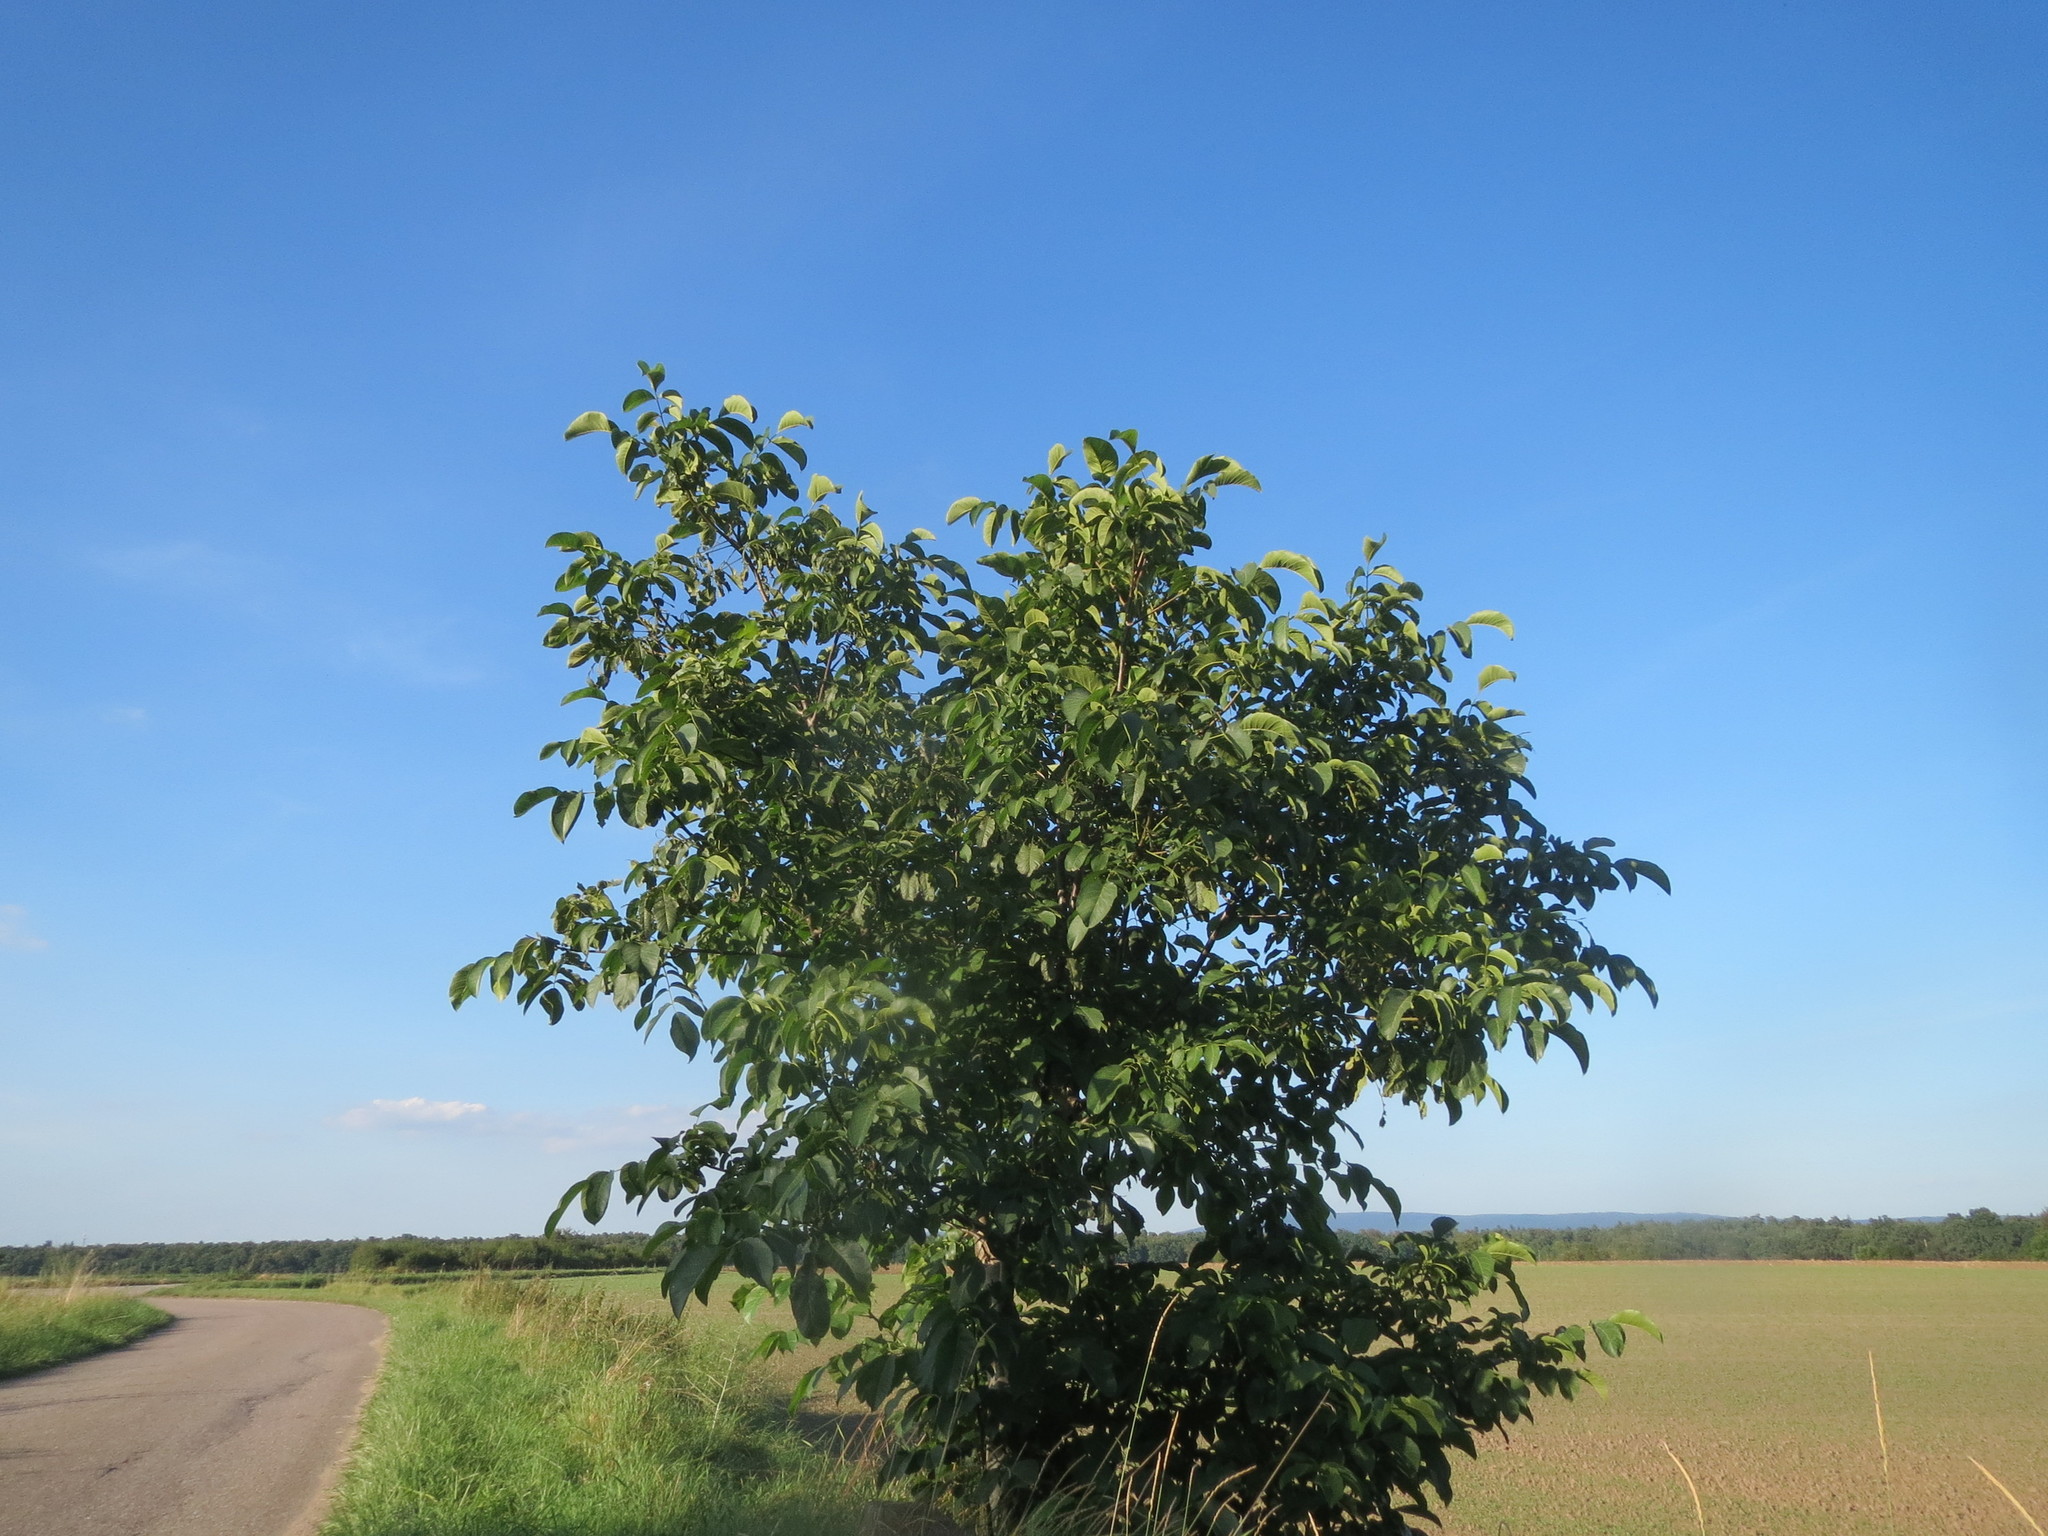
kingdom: Plantae
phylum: Tracheophyta
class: Magnoliopsida
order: Fagales
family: Juglandaceae
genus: Juglans
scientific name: Juglans regia
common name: Walnut
